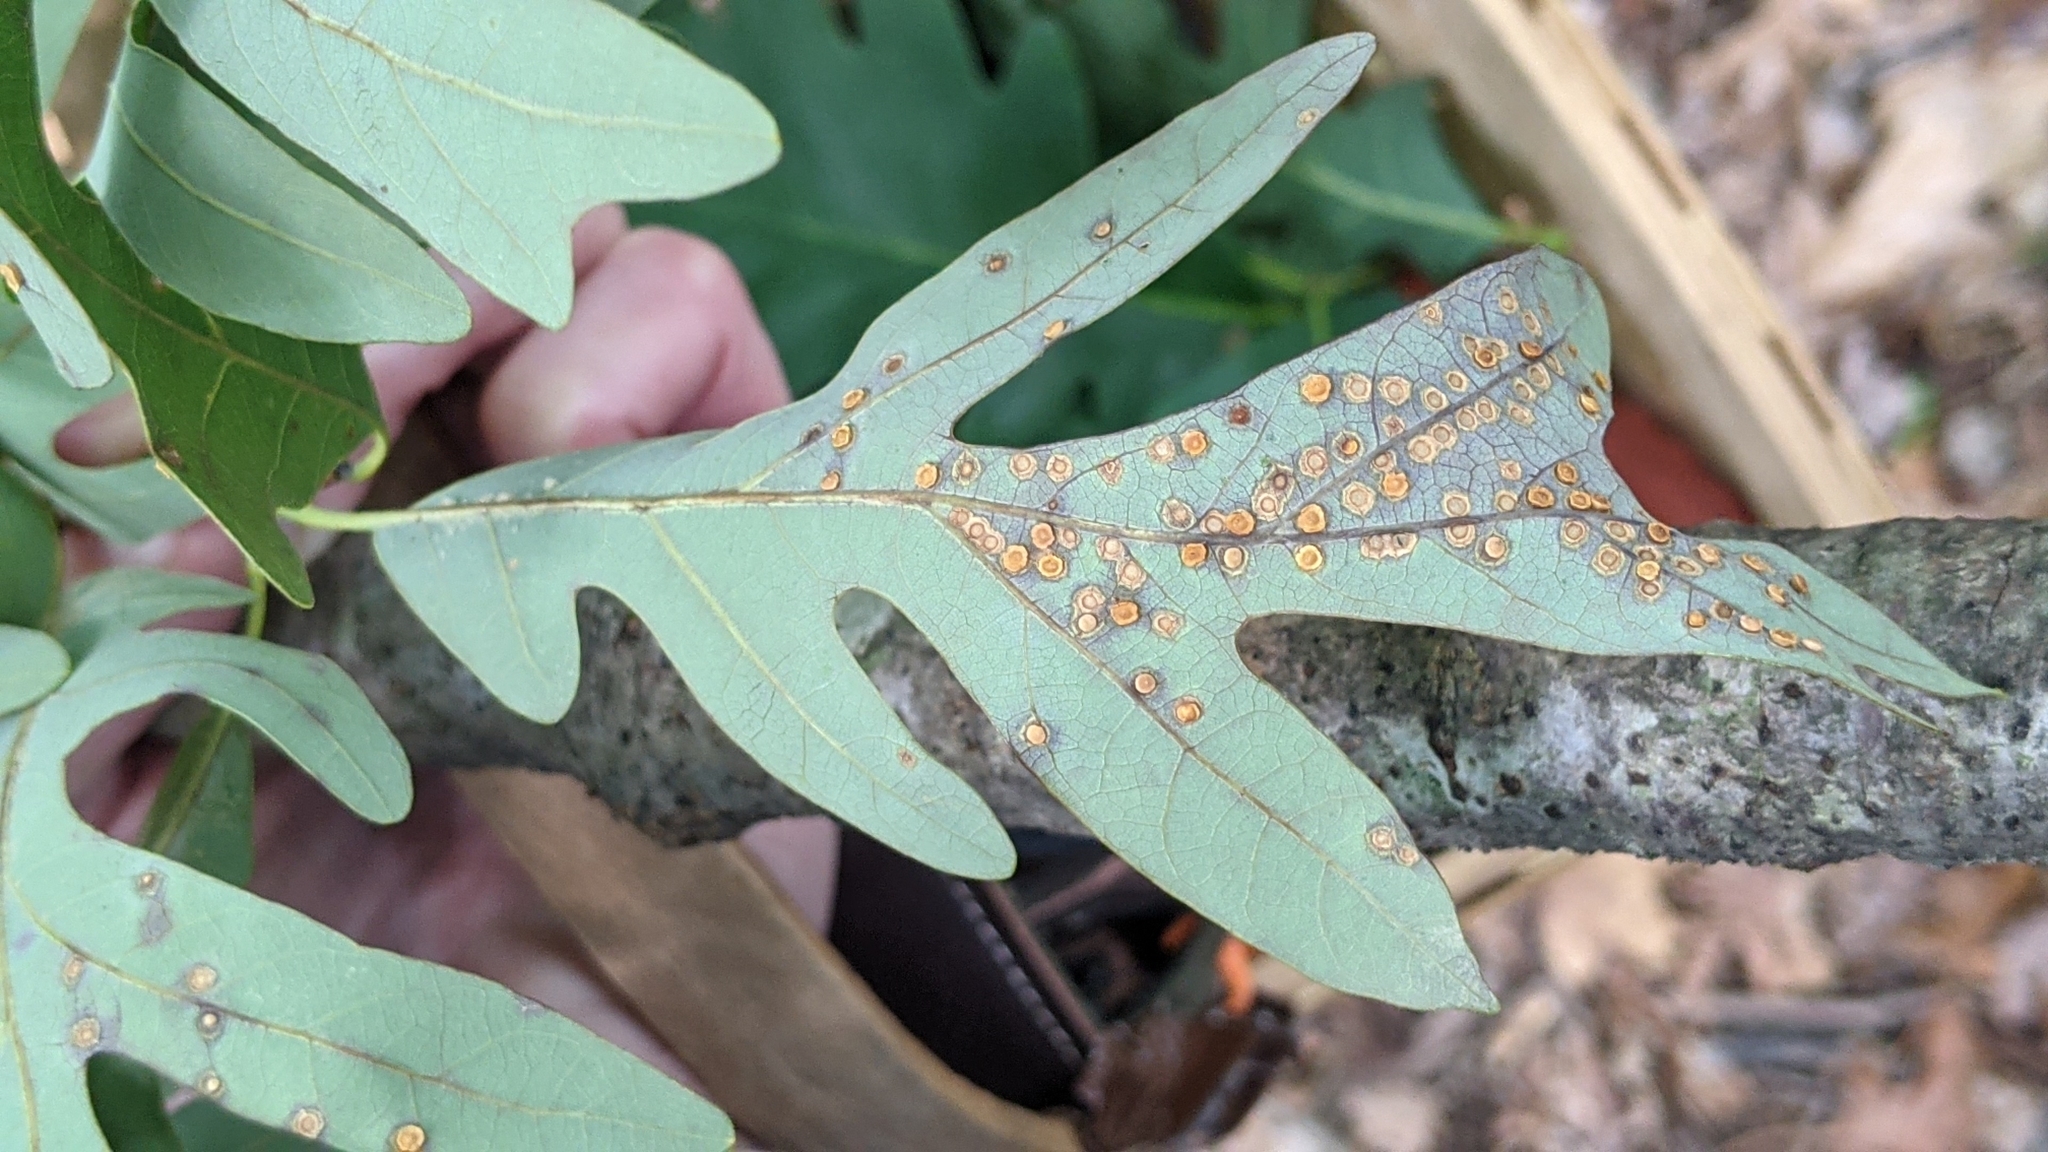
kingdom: Plantae
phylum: Tracheophyta
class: Magnoliopsida
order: Fagales
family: Fagaceae
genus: Quercus
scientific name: Quercus alba
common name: White oak
